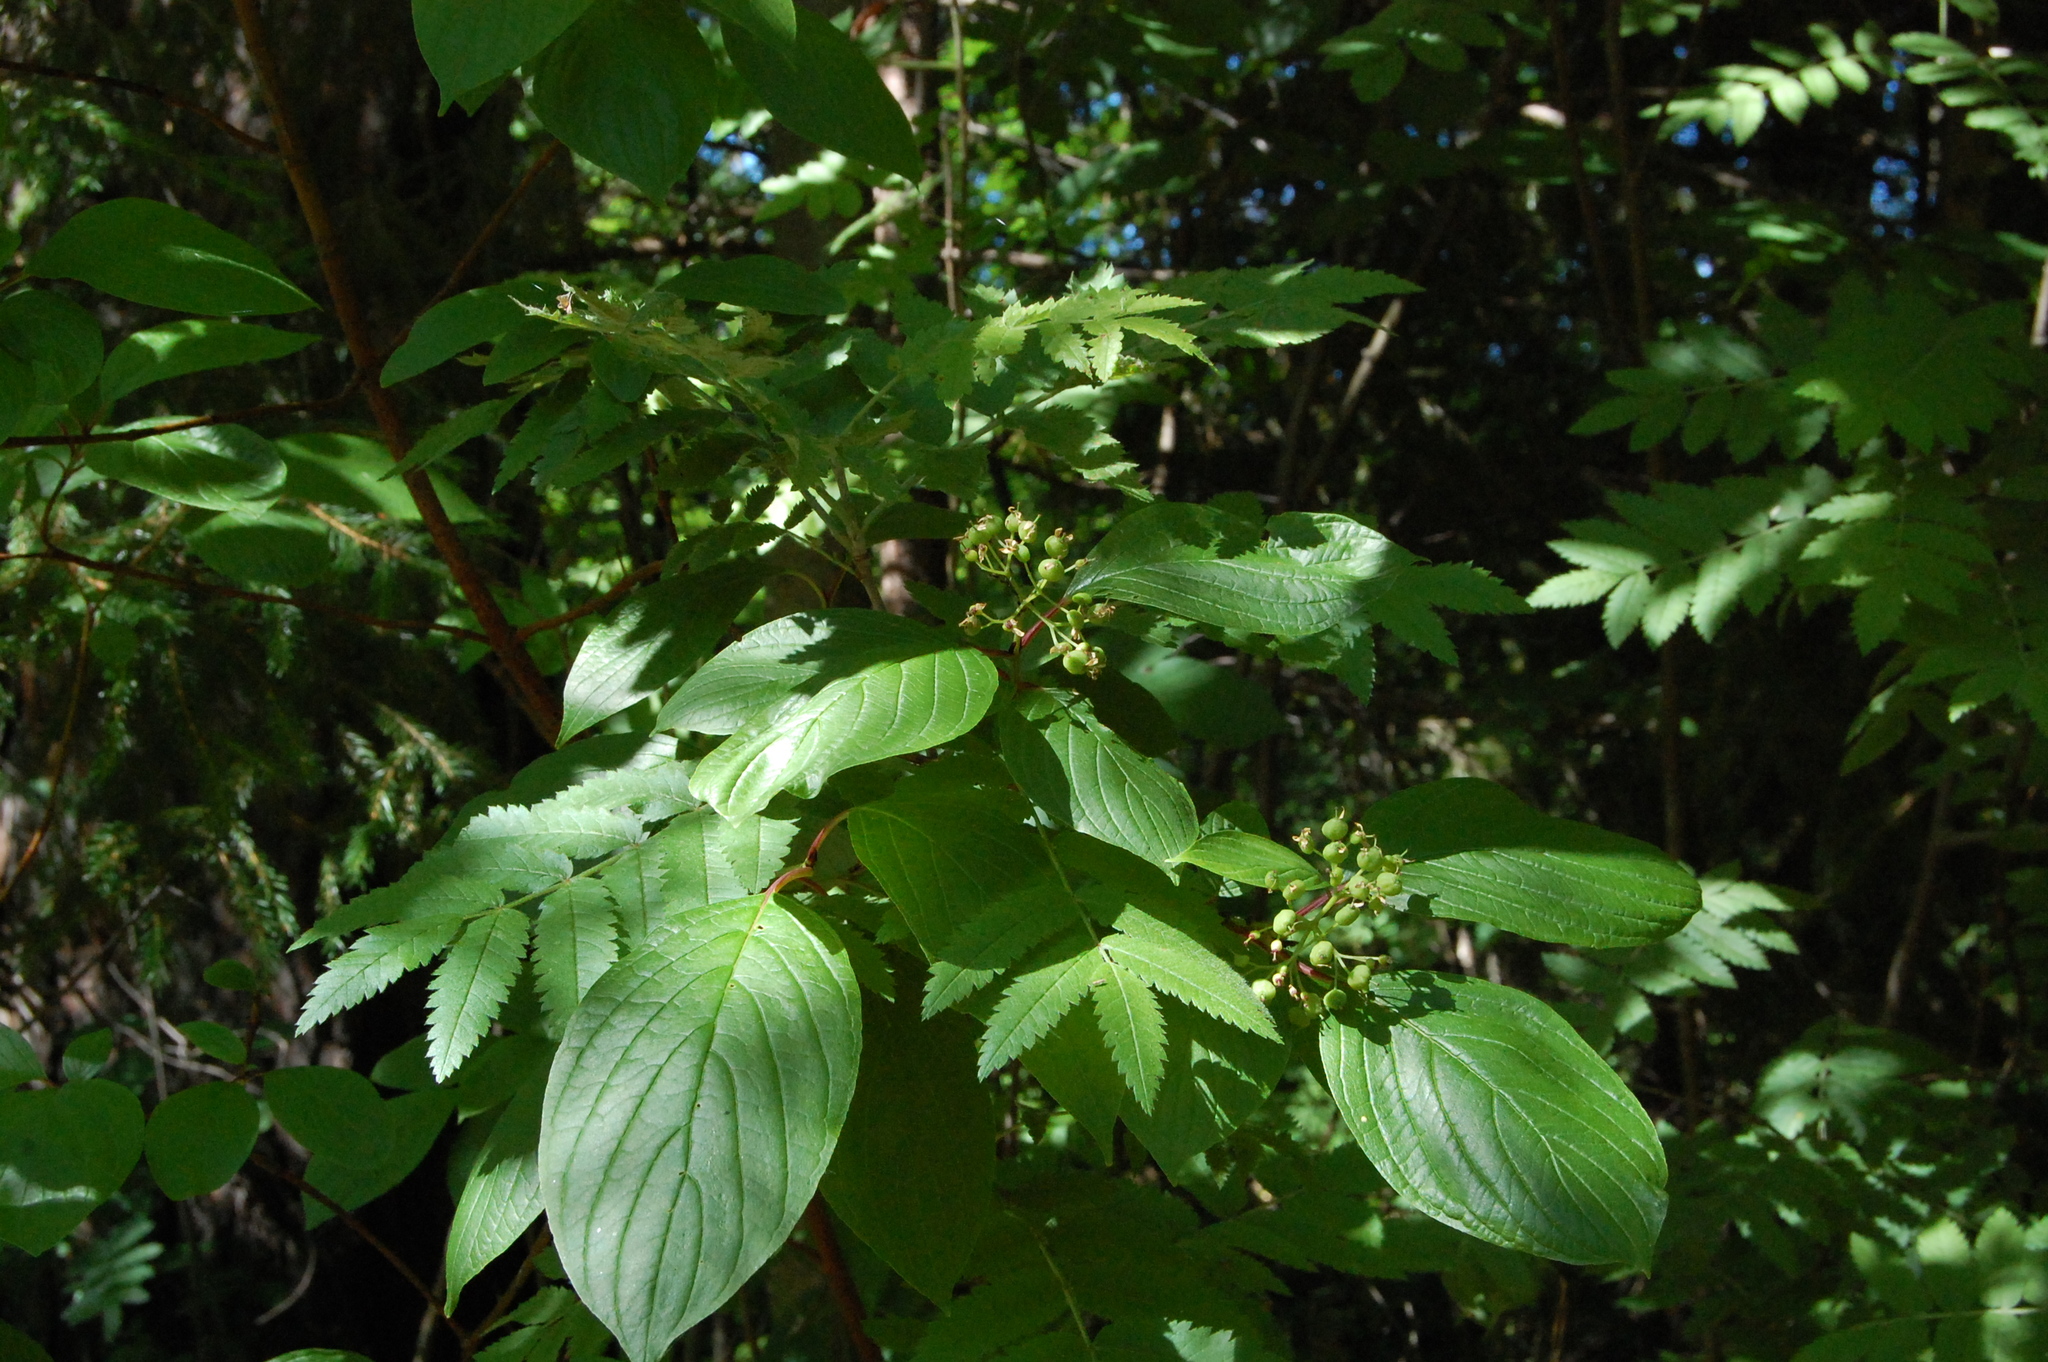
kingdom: Plantae
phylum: Tracheophyta
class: Magnoliopsida
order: Cornales
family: Cornaceae
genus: Cornus
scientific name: Cornus alba
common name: White dogwood
